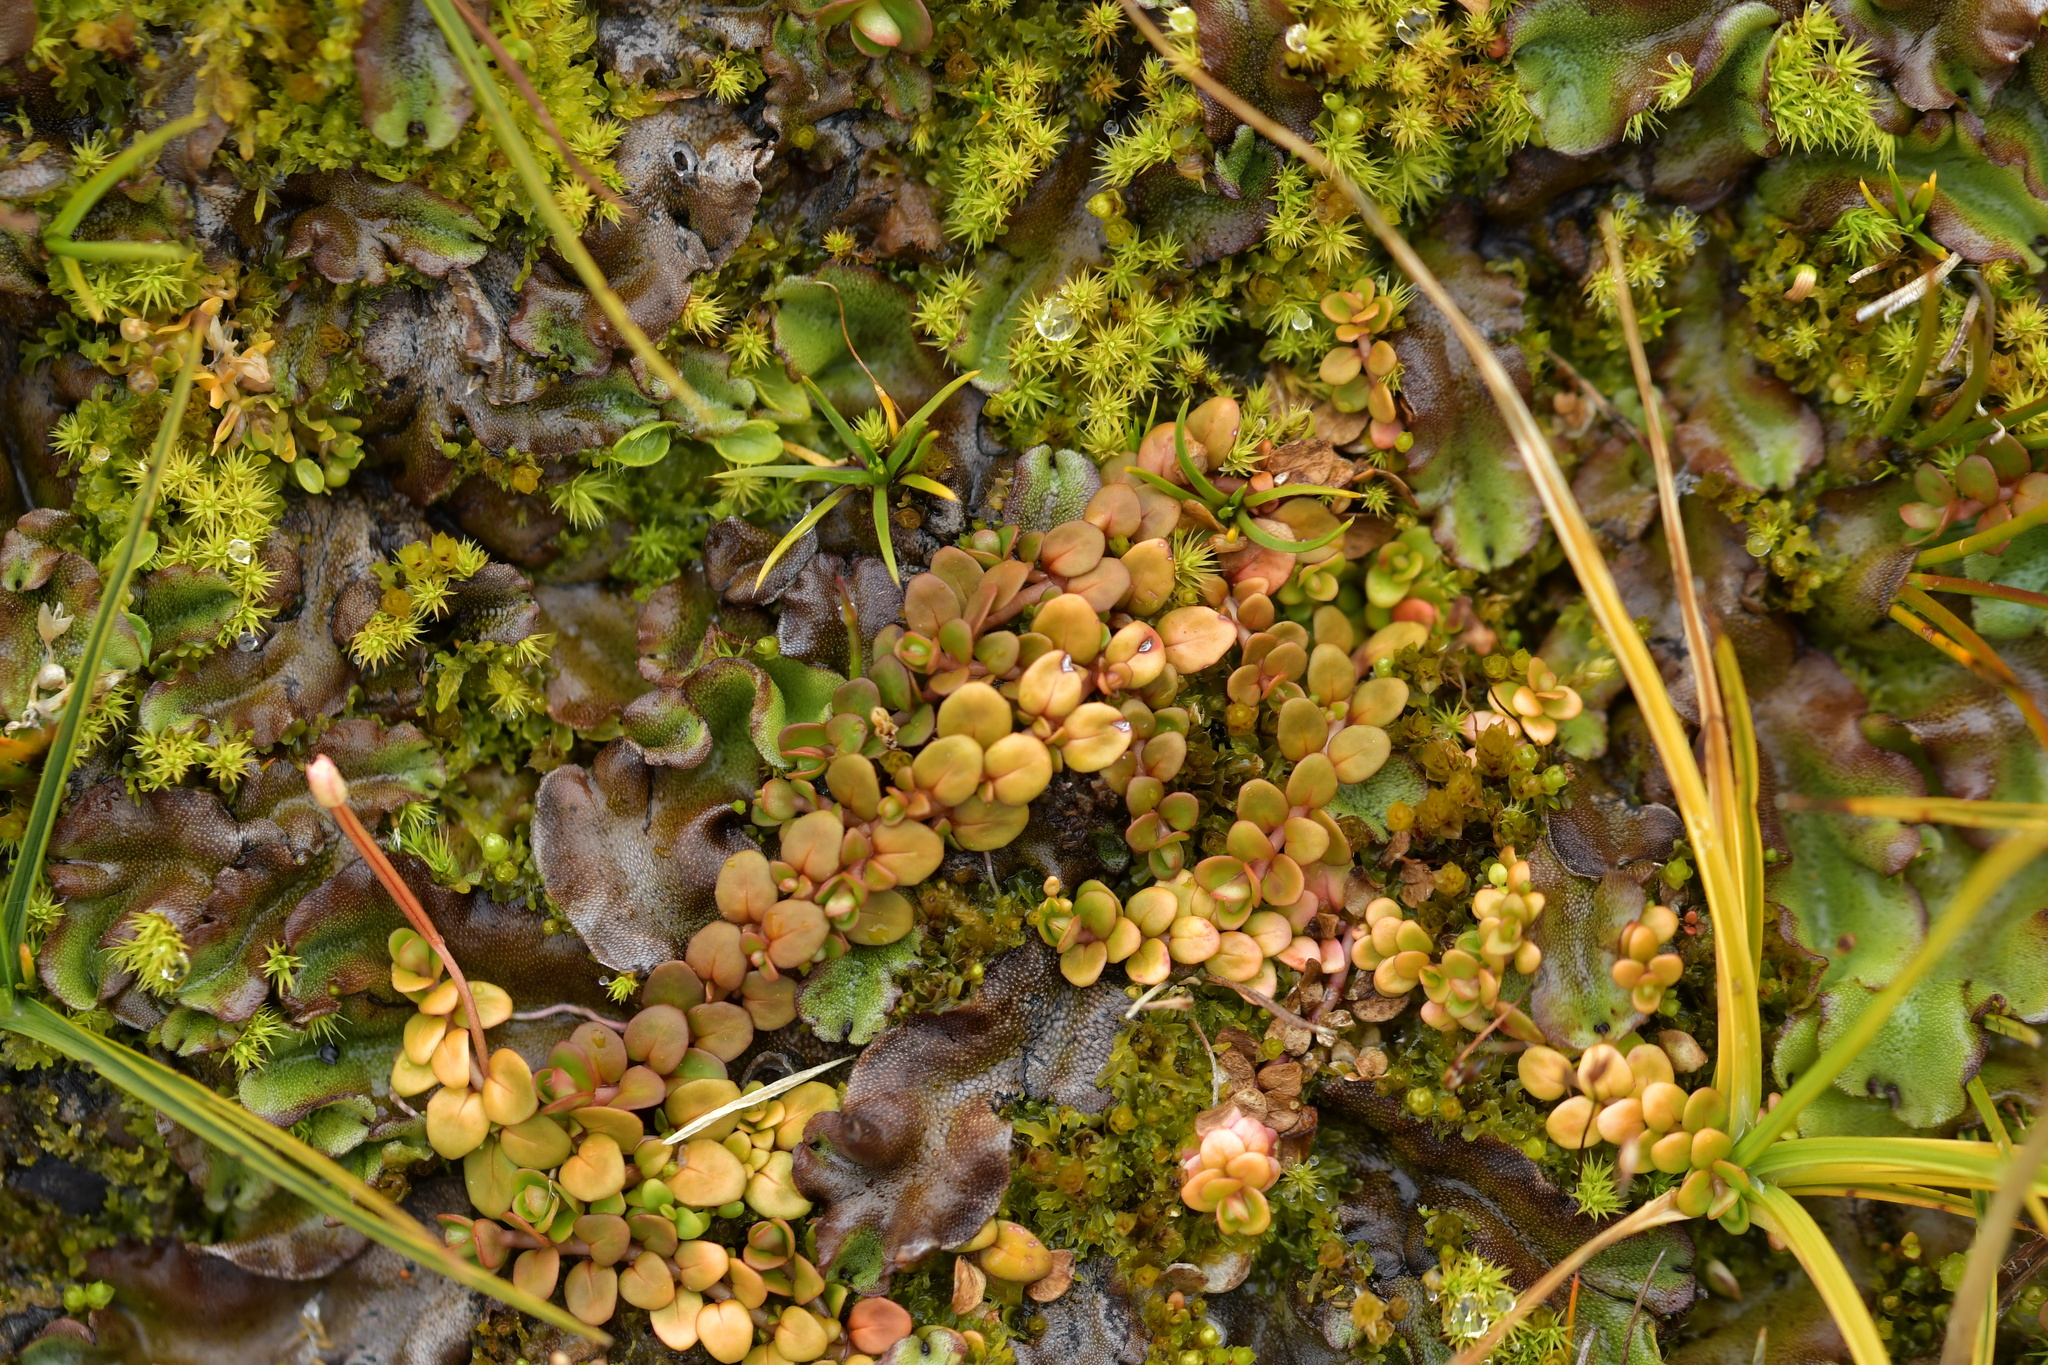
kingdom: Plantae
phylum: Tracheophyta
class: Magnoliopsida
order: Myrtales
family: Onagraceae
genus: Epilobium
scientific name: Epilobium brunnescens
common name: New zealand willowherb
